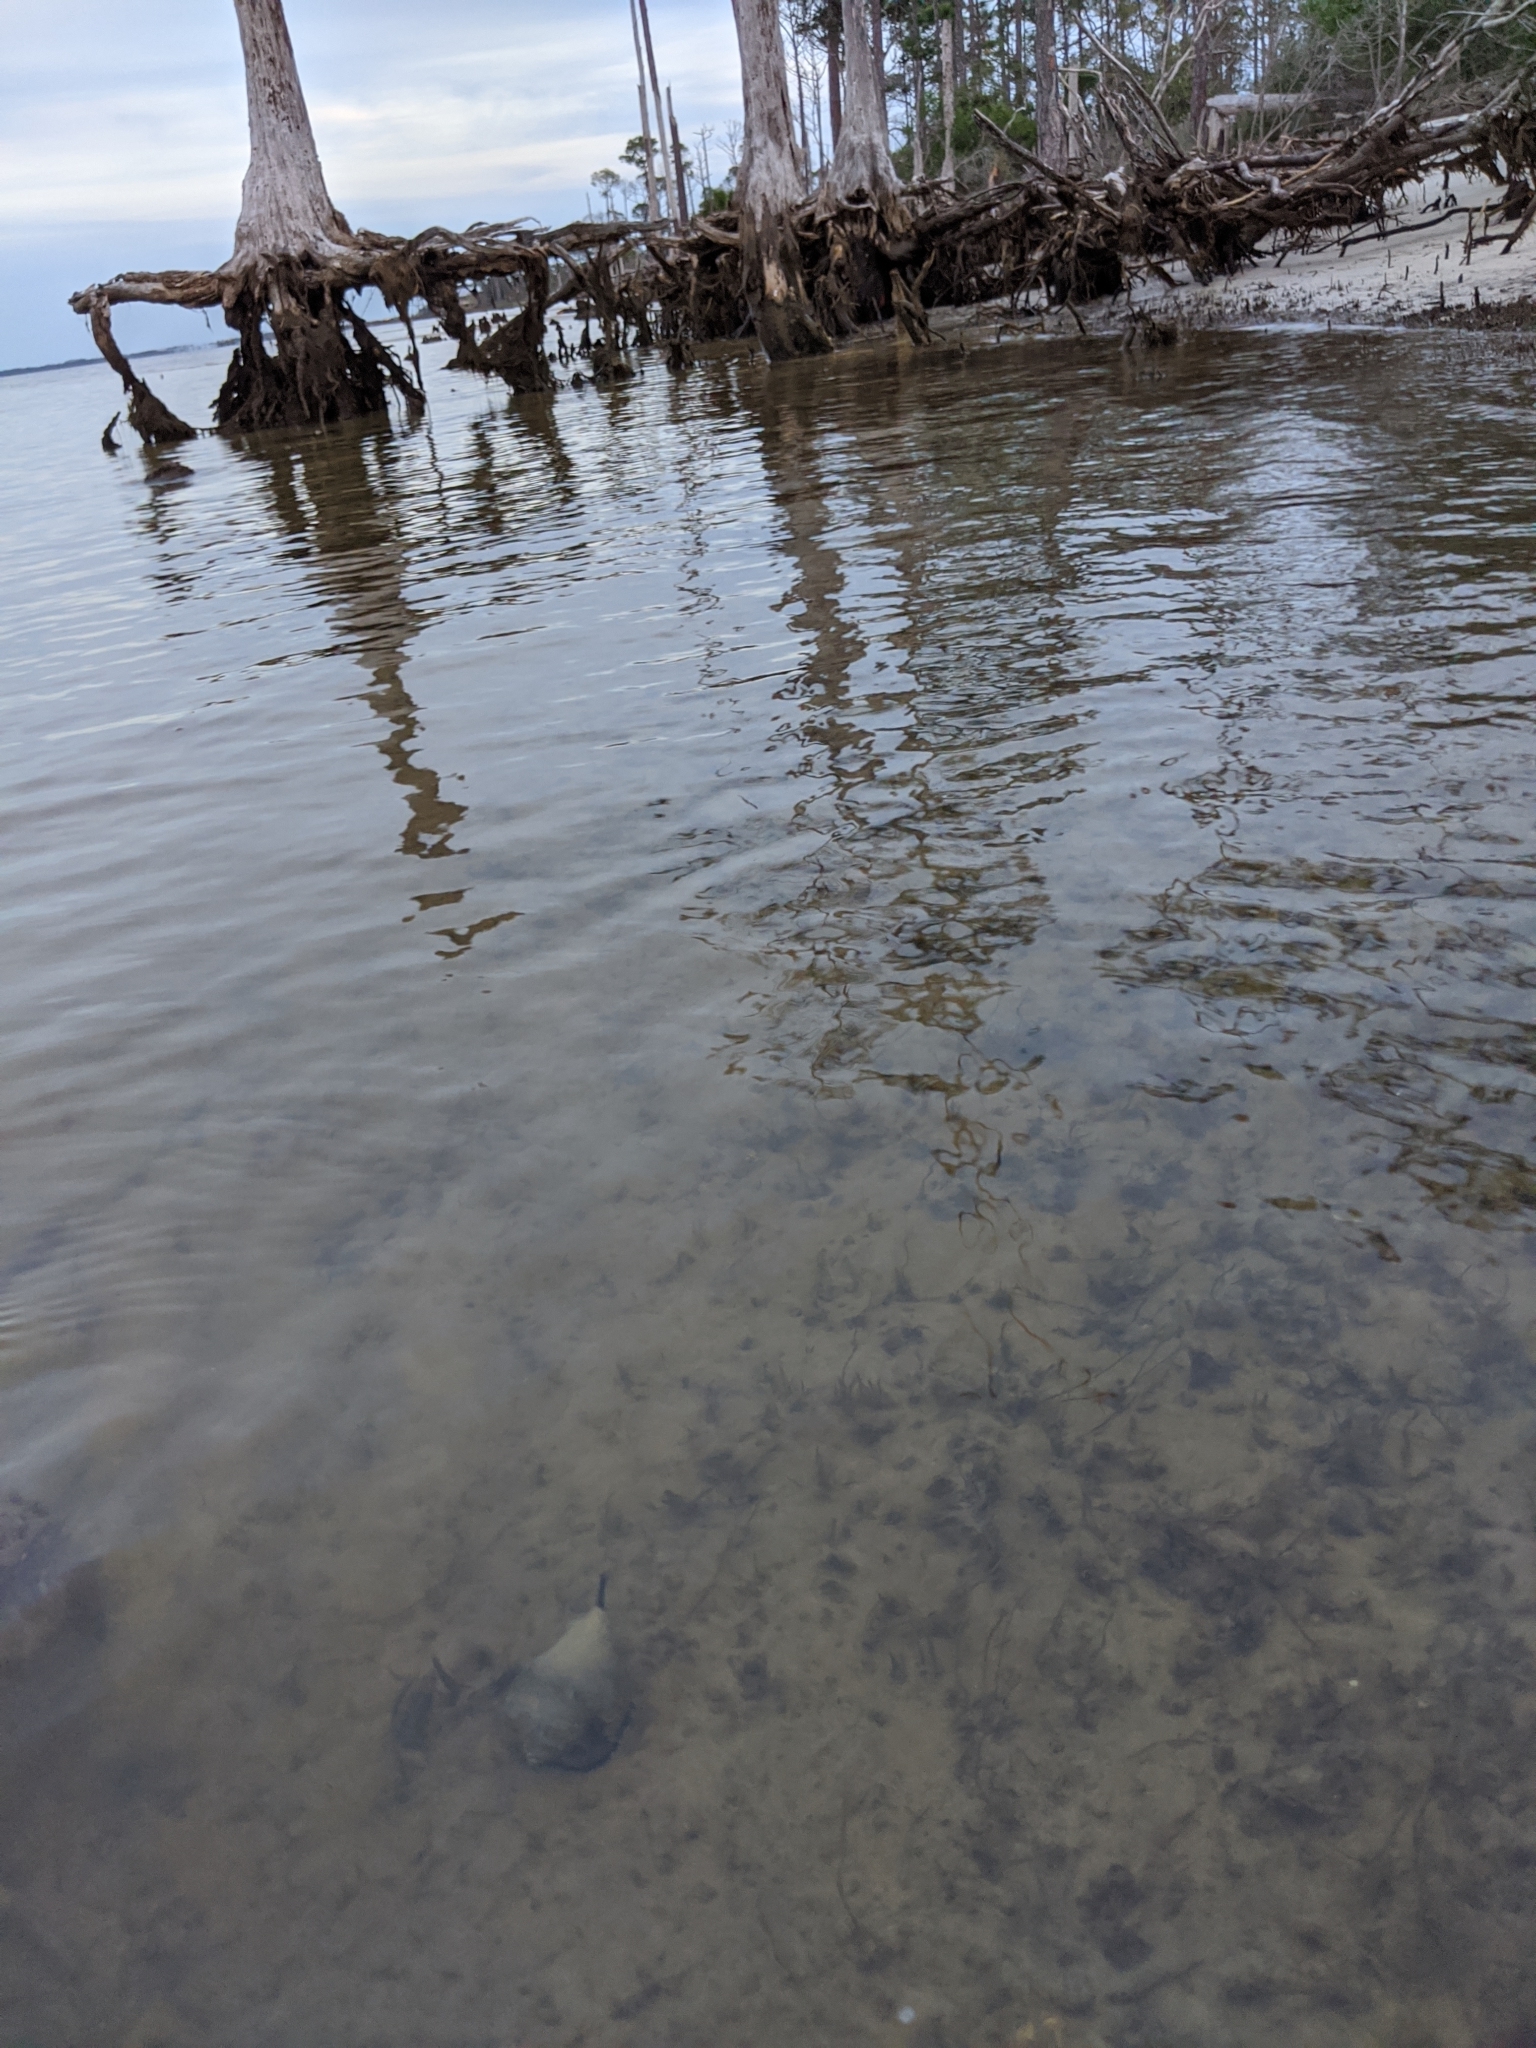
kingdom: Animalia
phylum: Mollusca
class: Gastropoda
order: Neogastropoda
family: Melongenidae
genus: Melongena
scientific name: Melongena corona
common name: American crown conch
